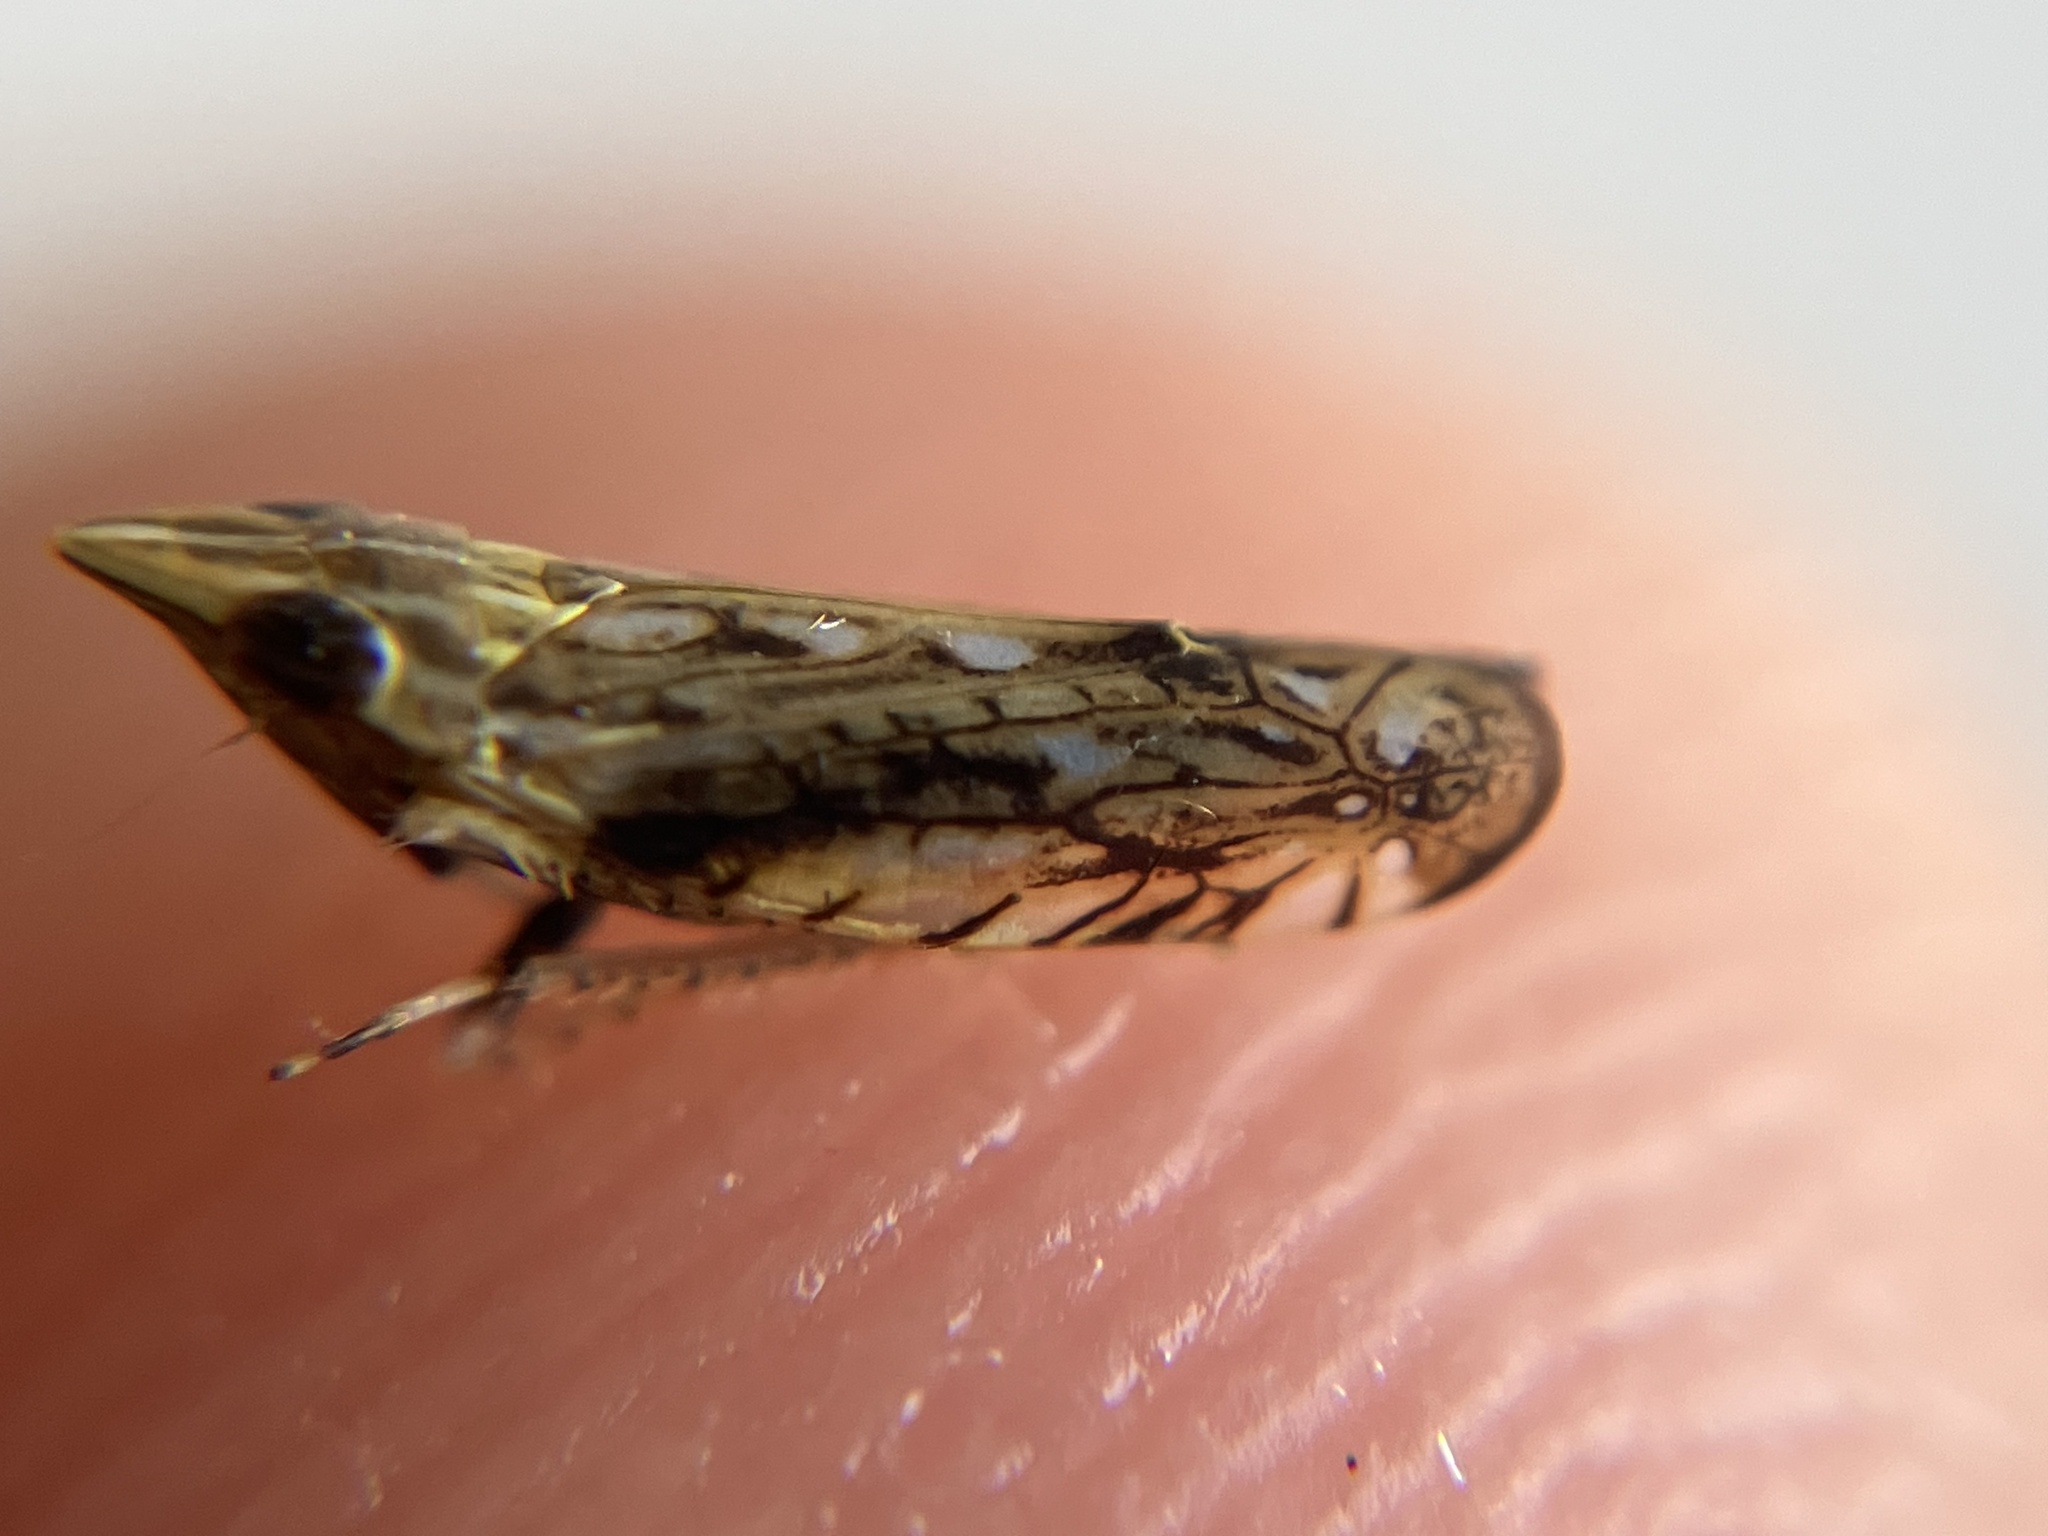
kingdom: Animalia
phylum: Arthropoda
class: Insecta
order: Hemiptera
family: Cicadellidae
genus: Thryaksha
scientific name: Thryaksha recurvatus
